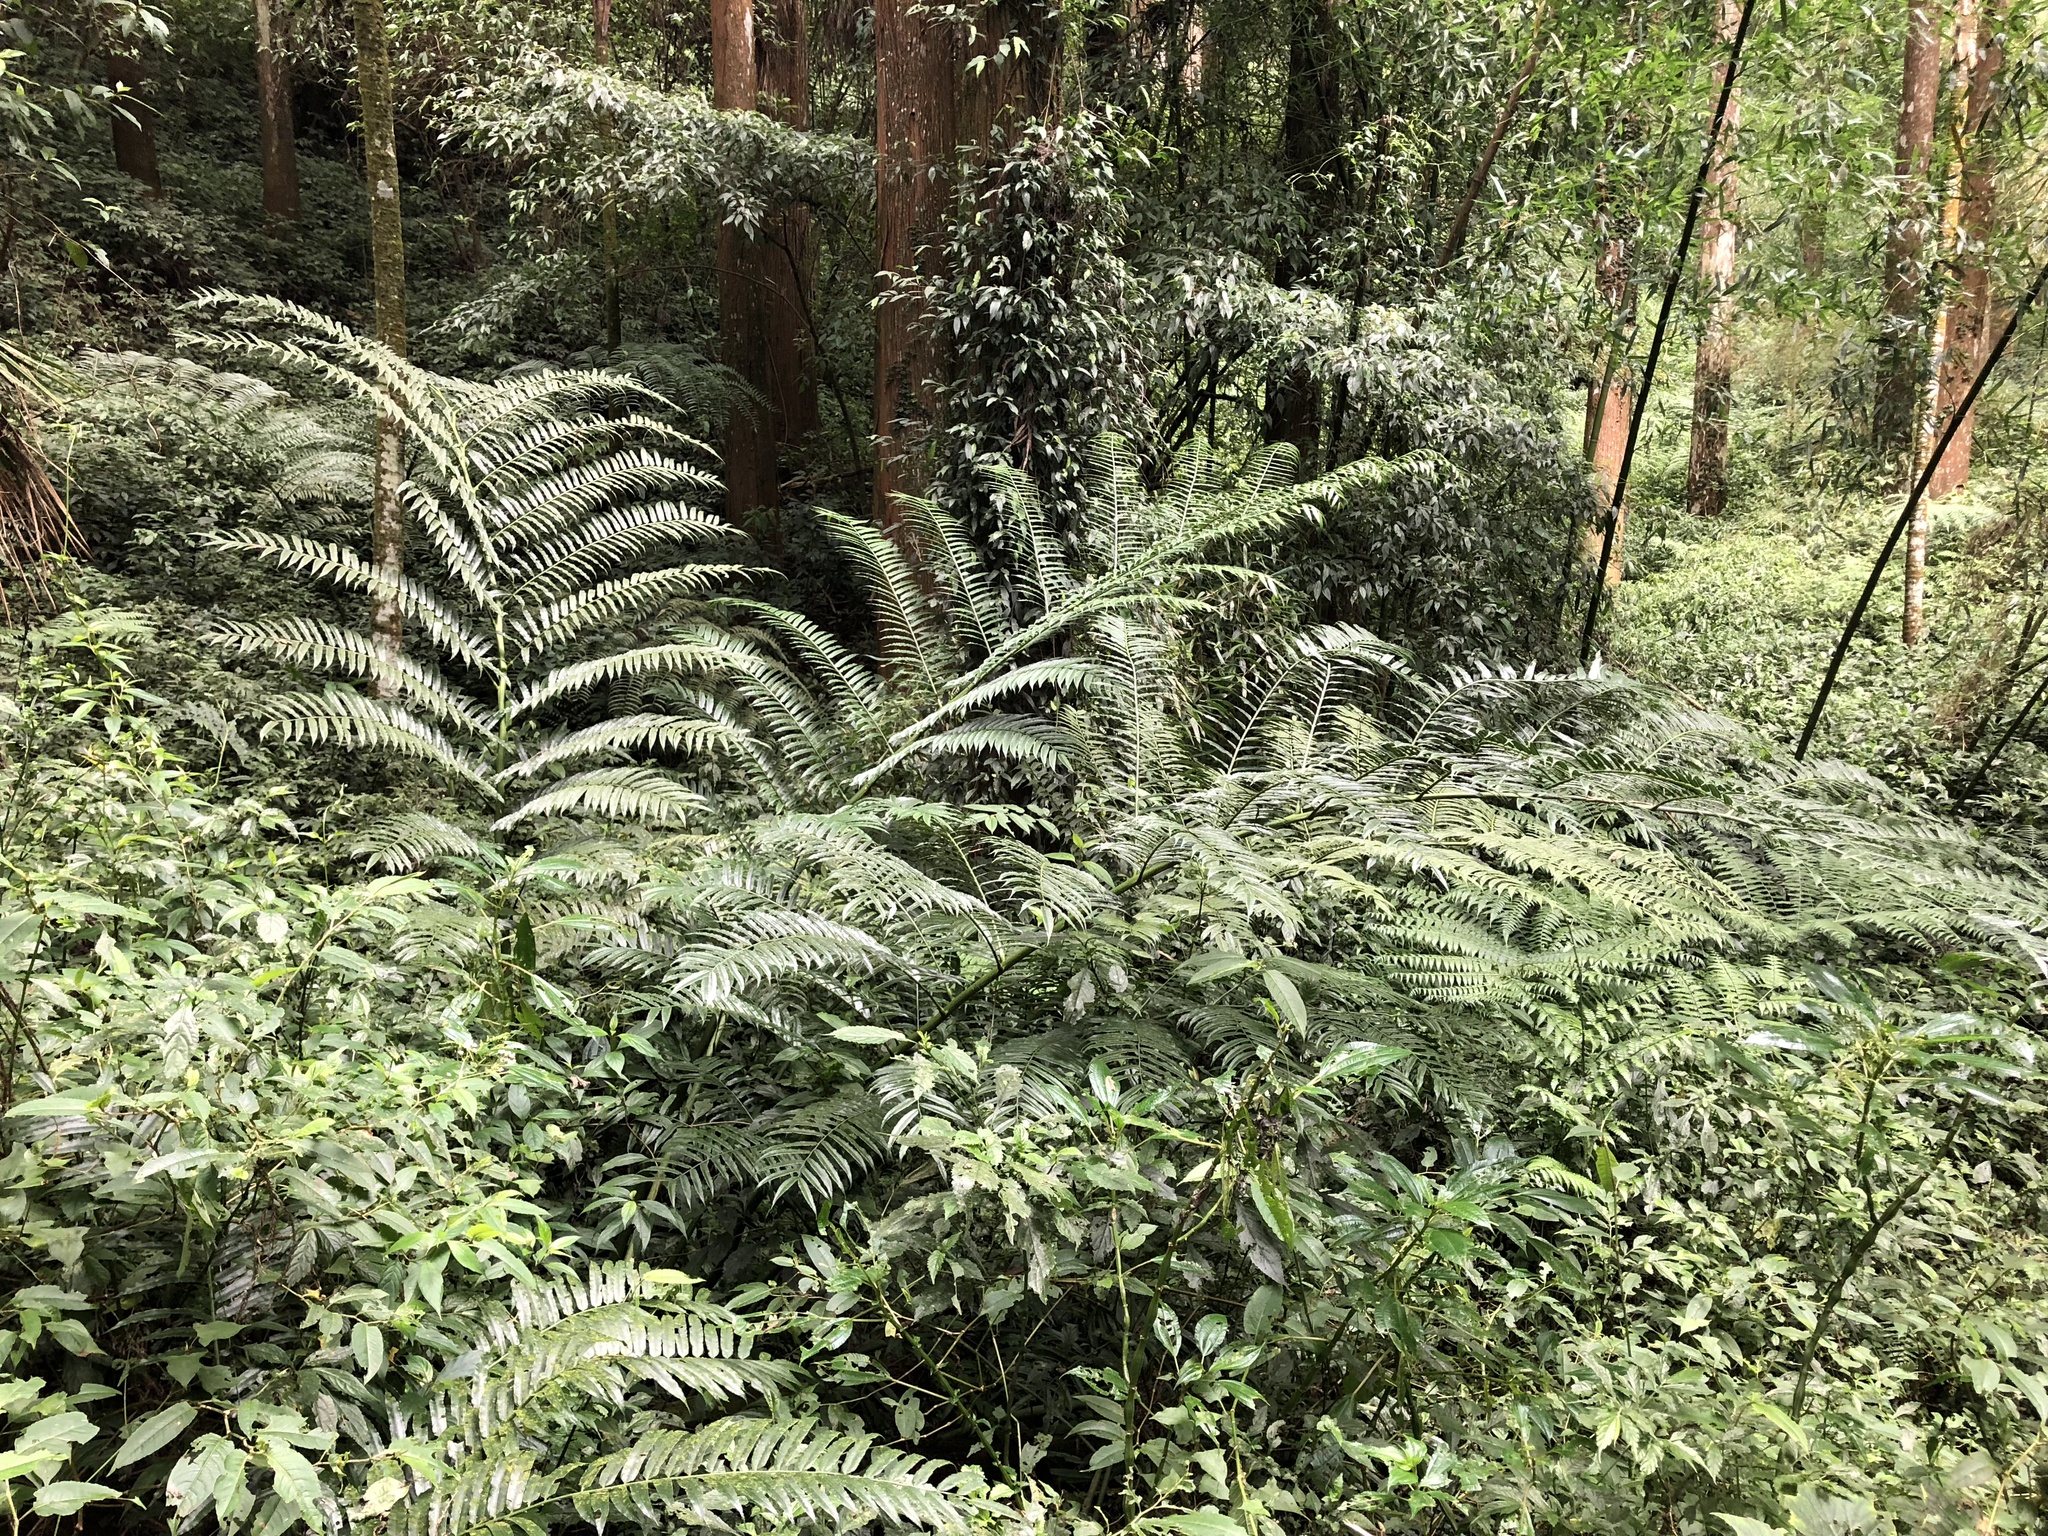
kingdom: Plantae
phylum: Tracheophyta
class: Polypodiopsida
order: Marattiales
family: Marattiaceae
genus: Angiopteris
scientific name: Angiopteris lygodiifolia
